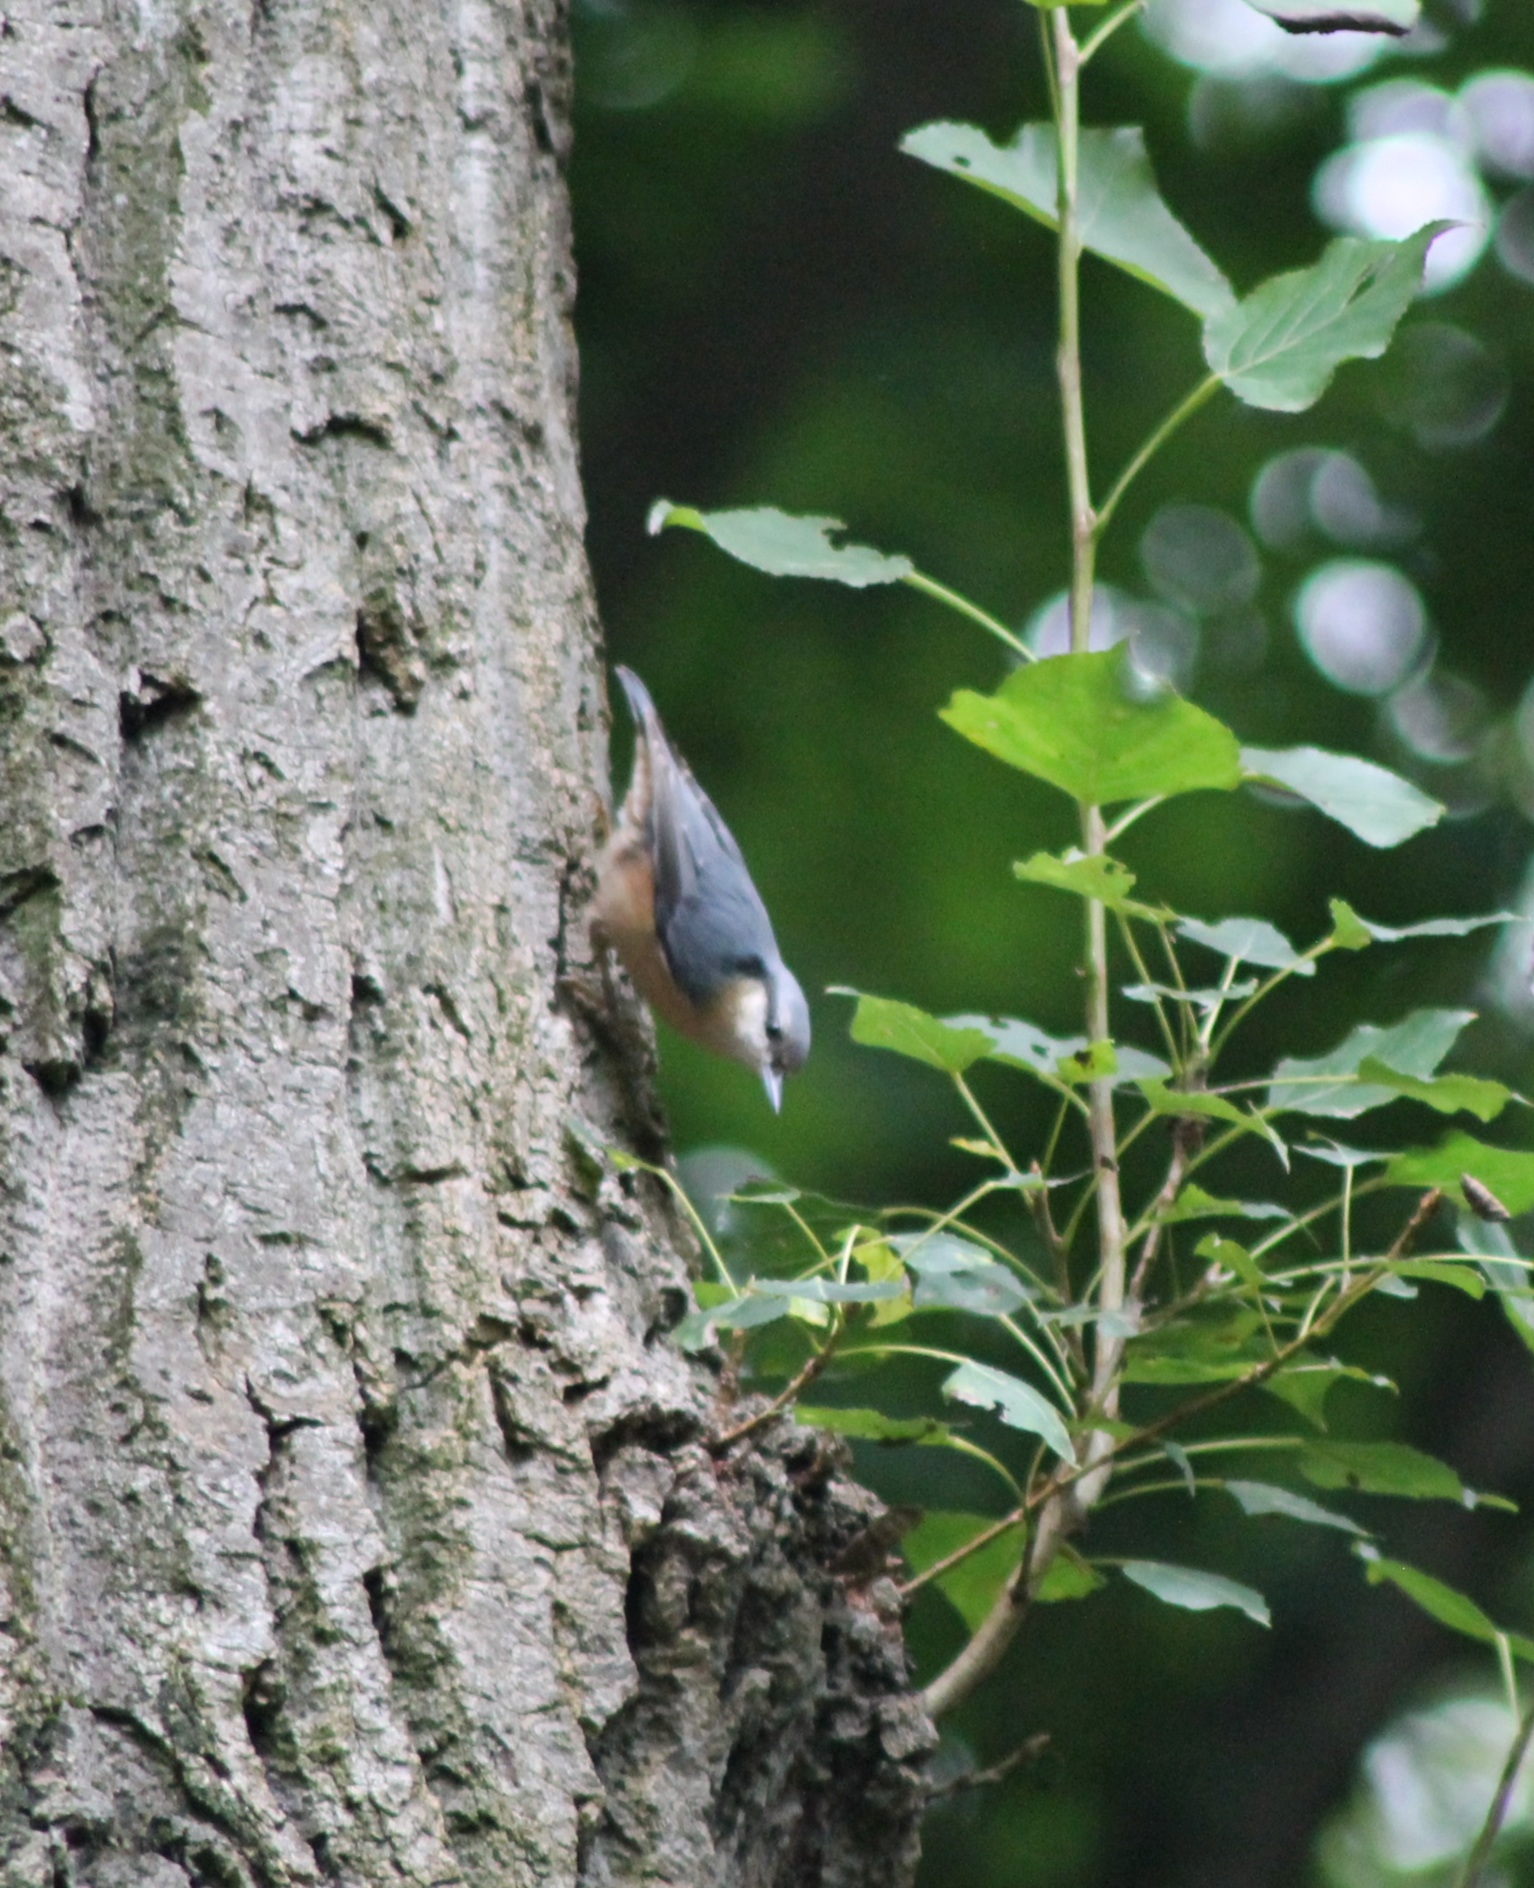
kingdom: Animalia
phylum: Chordata
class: Aves
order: Passeriformes
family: Sittidae
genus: Sitta
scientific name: Sitta europaea
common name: Eurasian nuthatch
